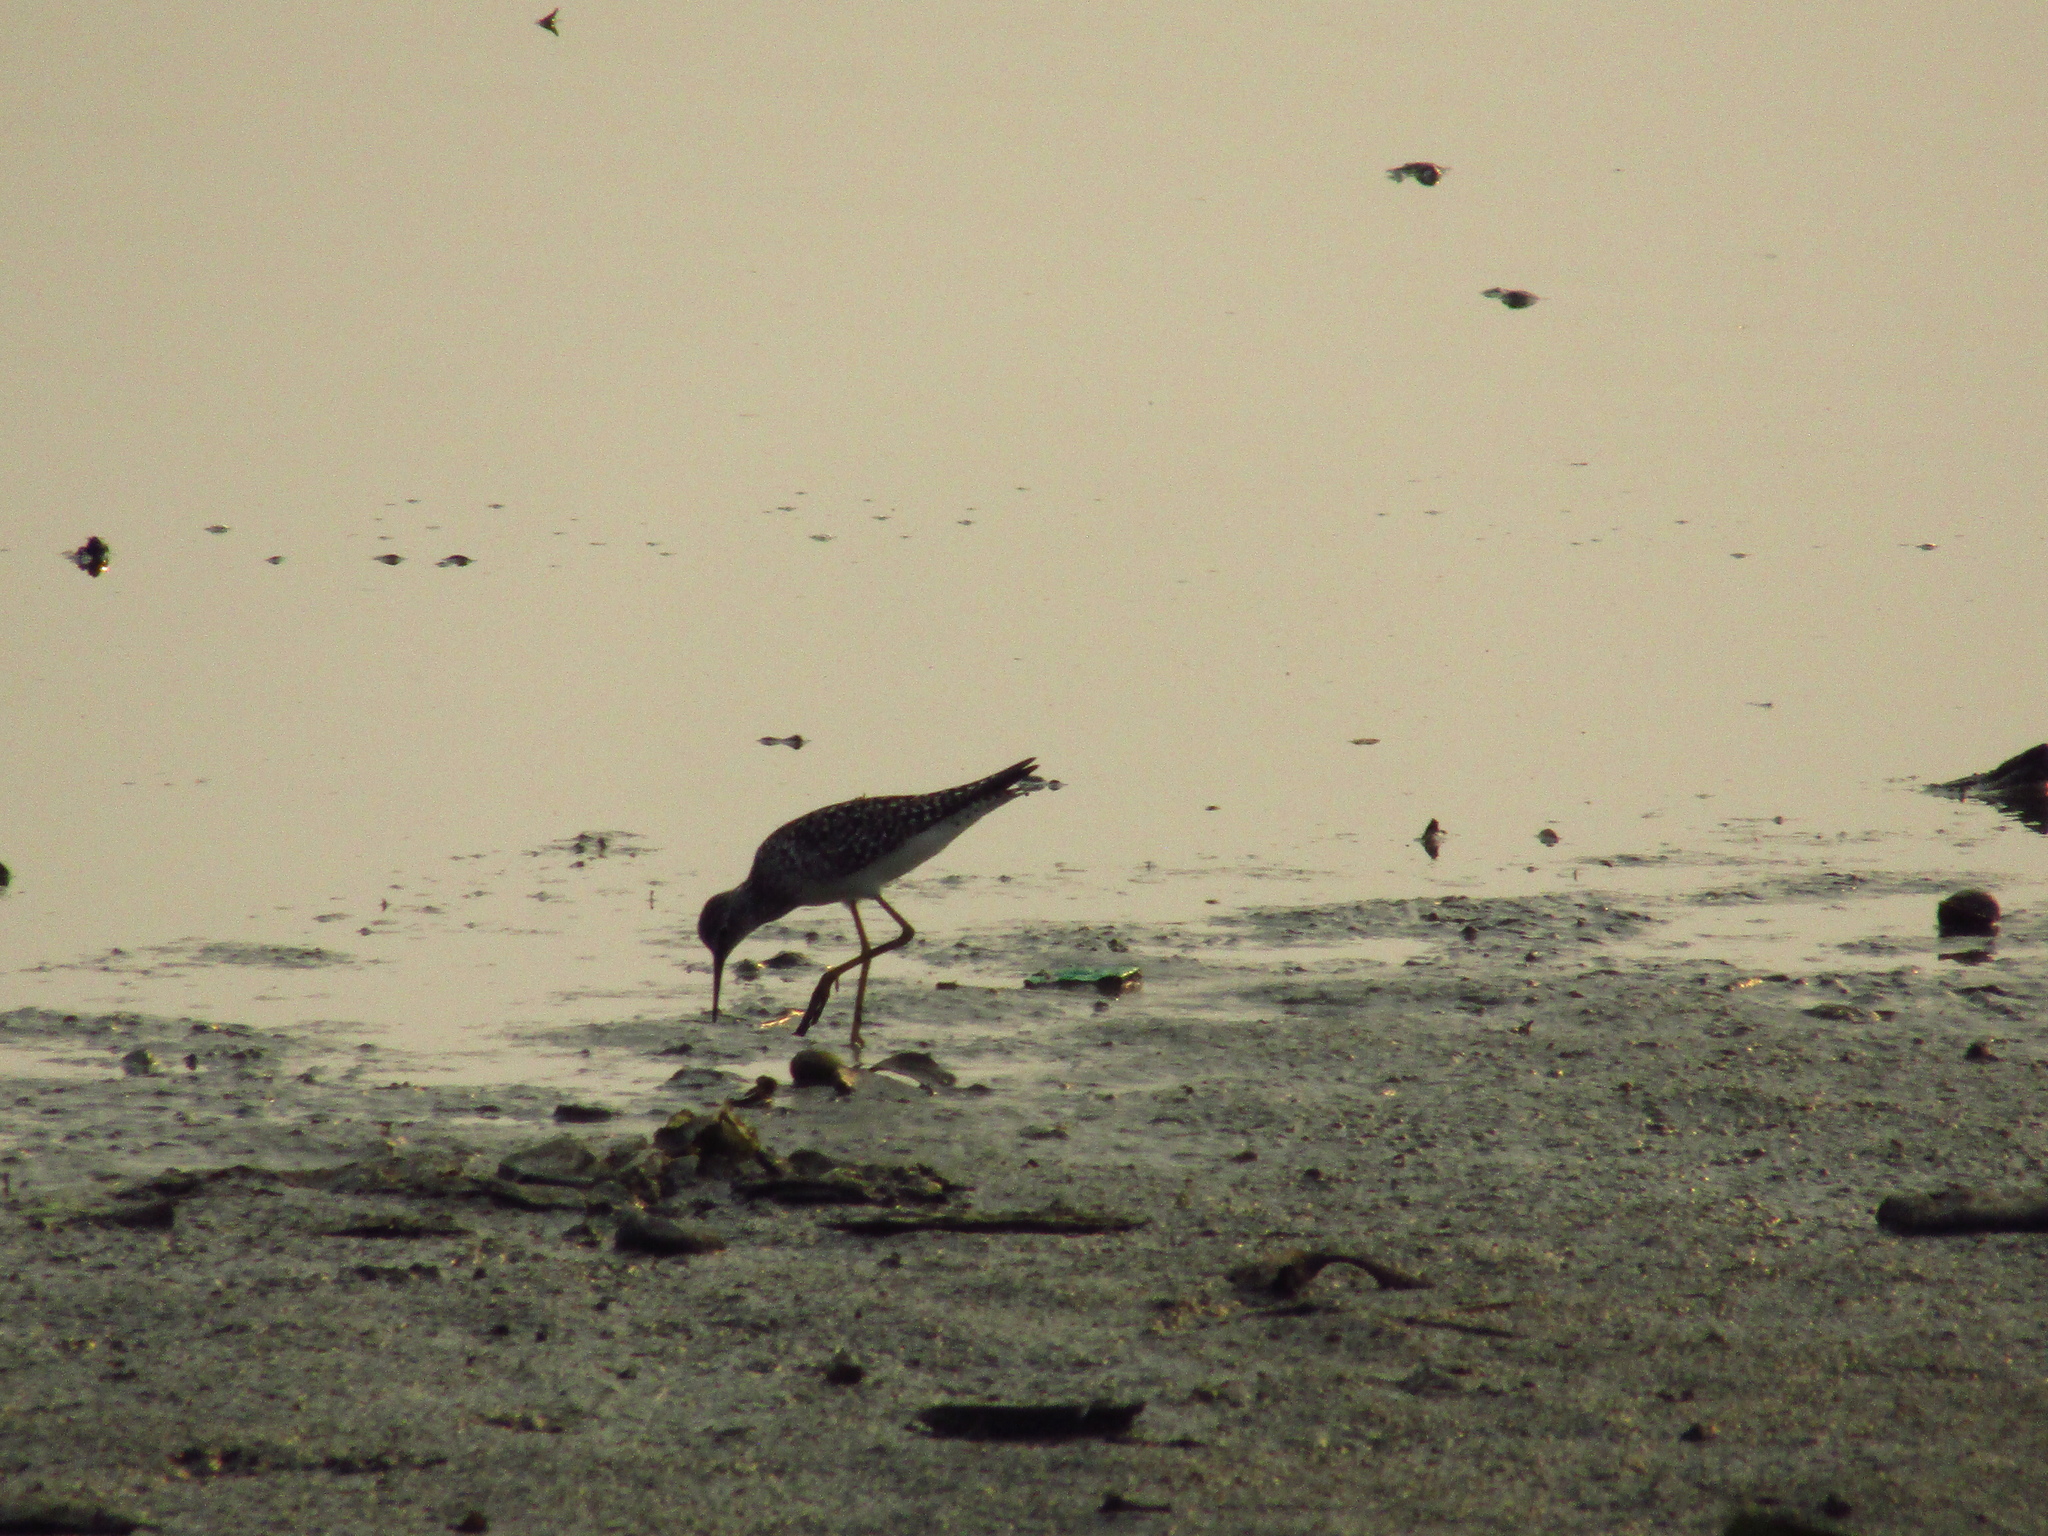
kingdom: Animalia
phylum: Chordata
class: Aves
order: Charadriiformes
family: Scolopacidae
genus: Tringa
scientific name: Tringa flavipes
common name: Lesser yellowlegs
